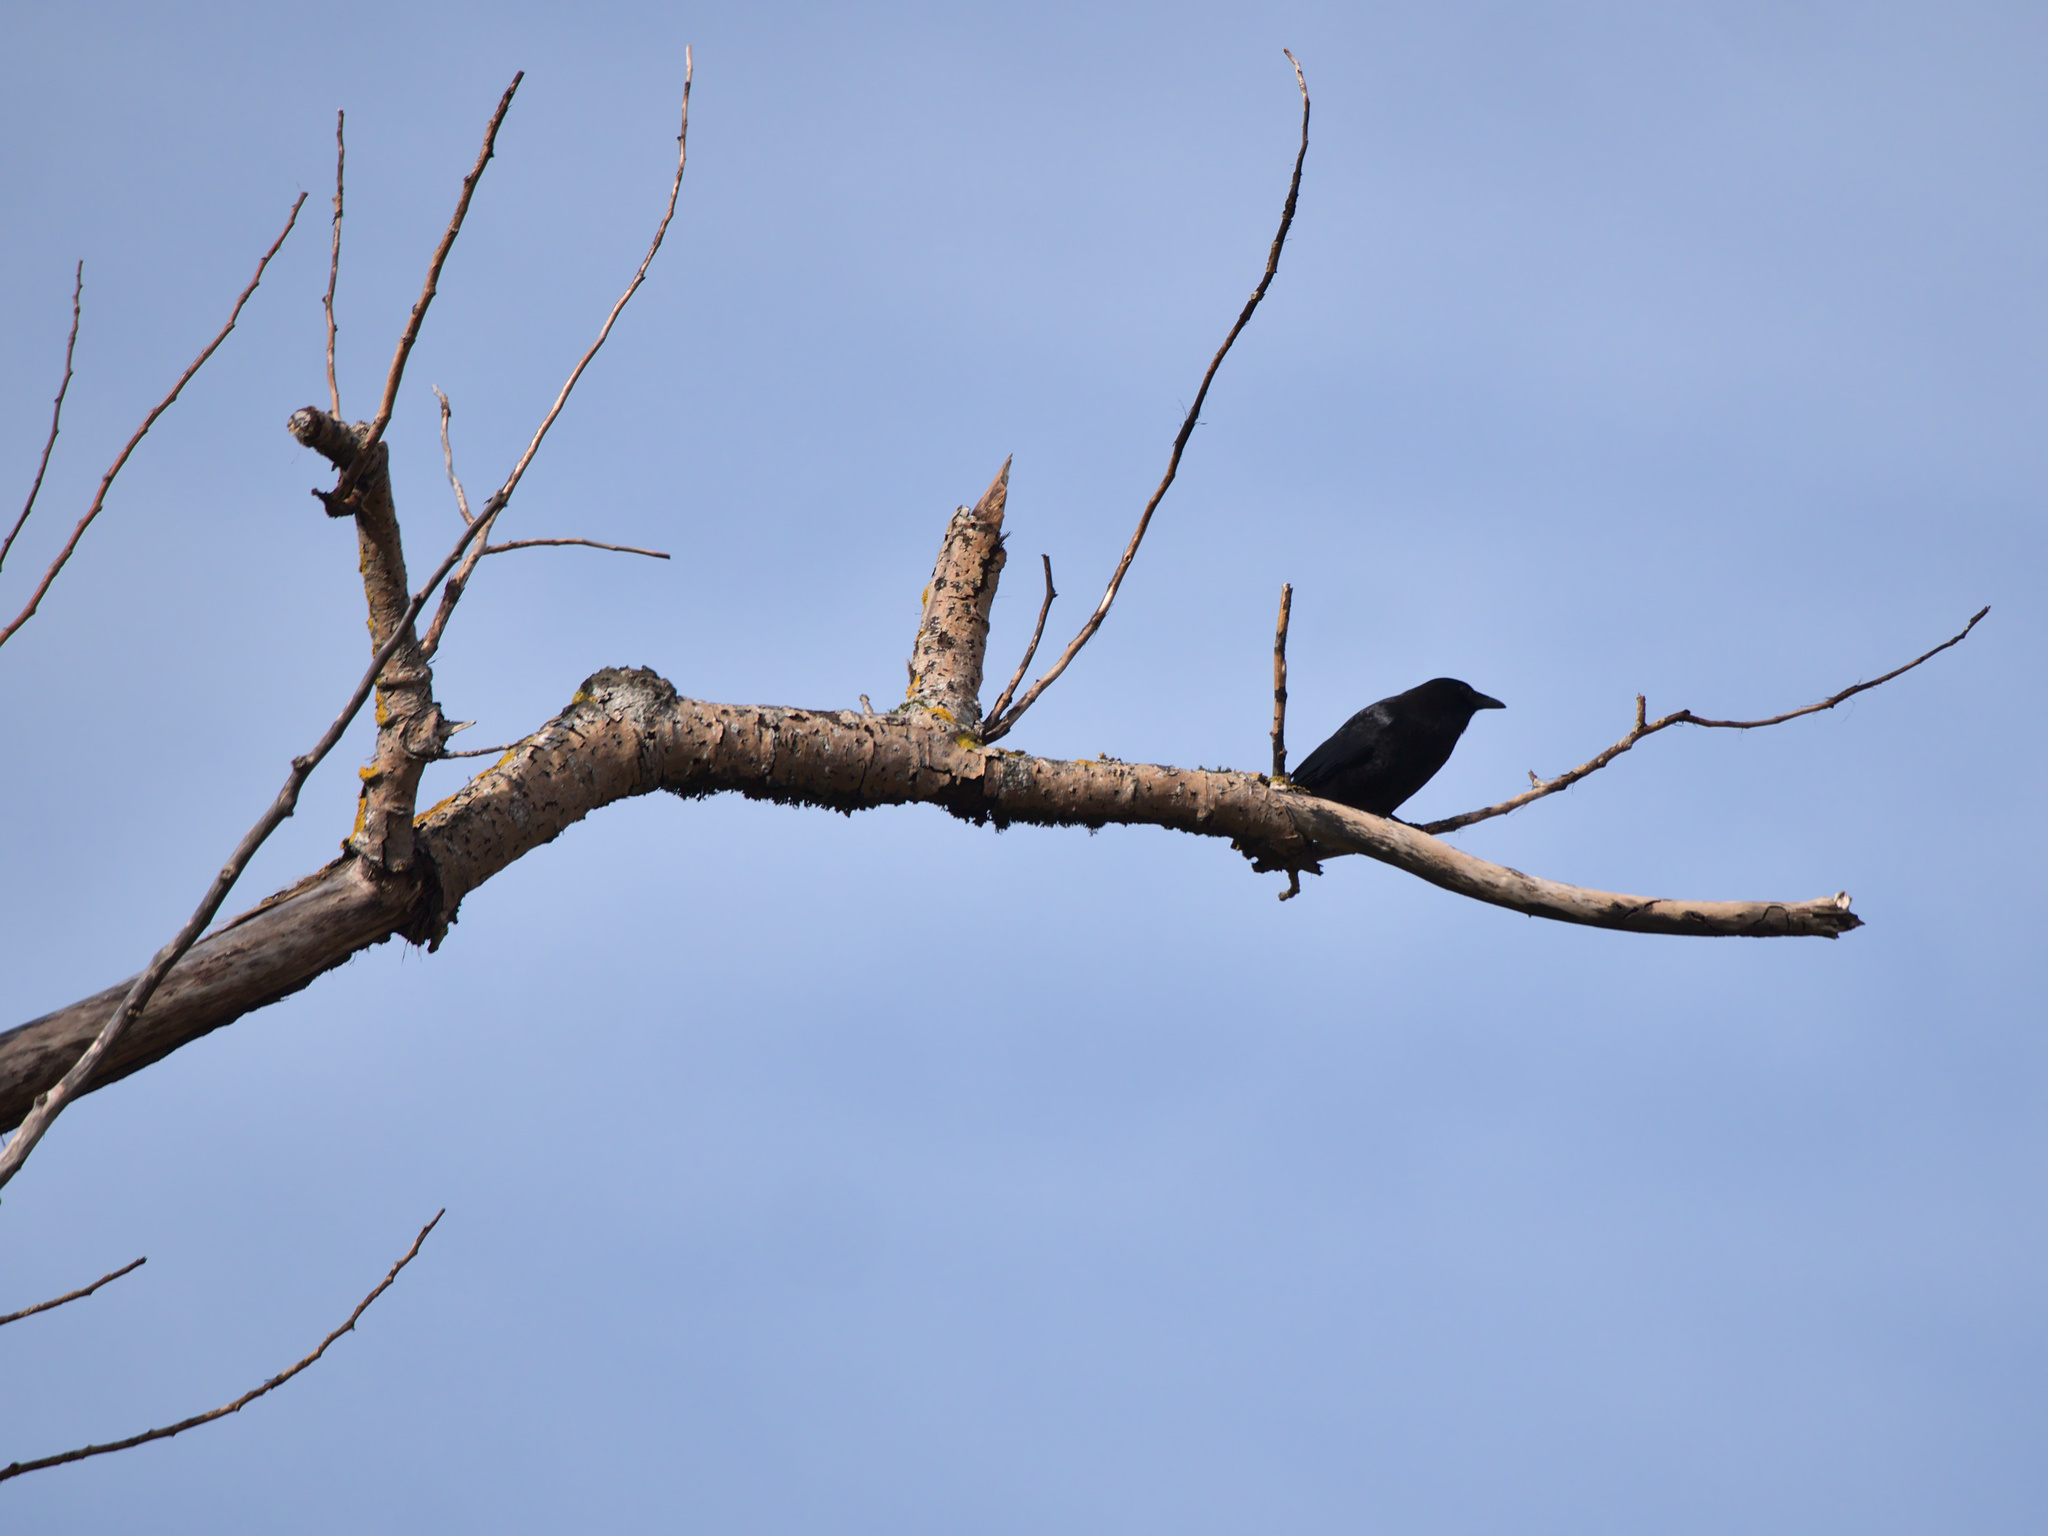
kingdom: Animalia
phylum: Chordata
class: Aves
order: Passeriformes
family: Corvidae
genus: Corvus
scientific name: Corvus brachyrhynchos
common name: American crow
